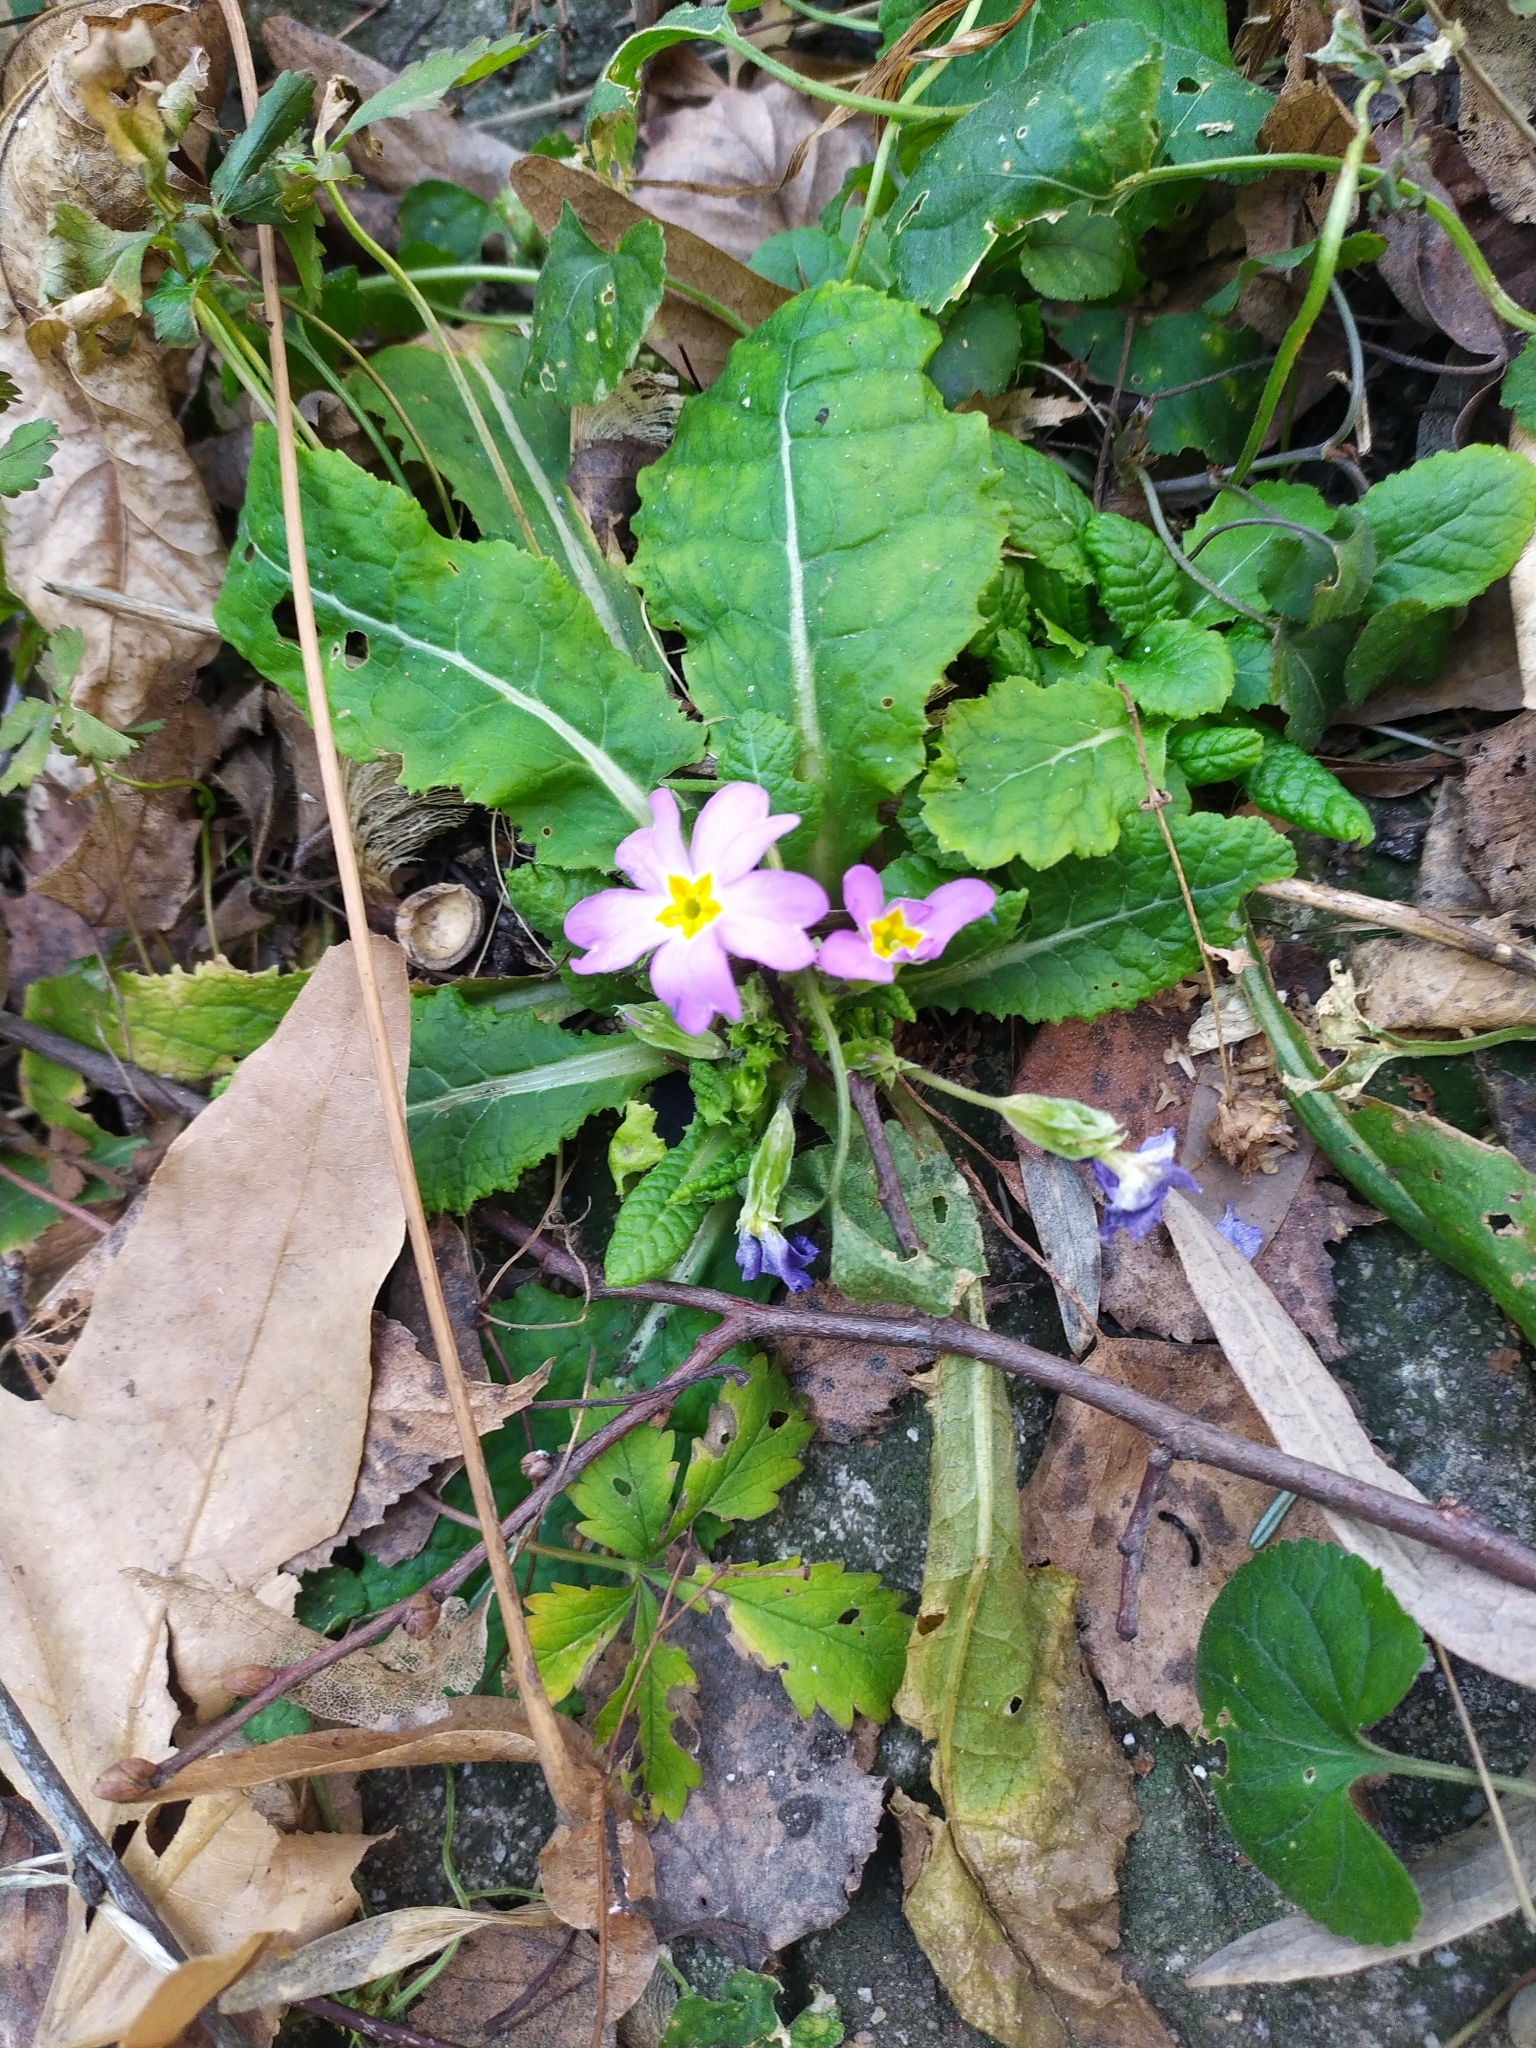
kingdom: Plantae
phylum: Tracheophyta
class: Magnoliopsida
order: Ericales
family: Primulaceae
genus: Primula
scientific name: Primula vulgaris
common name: Primrose
